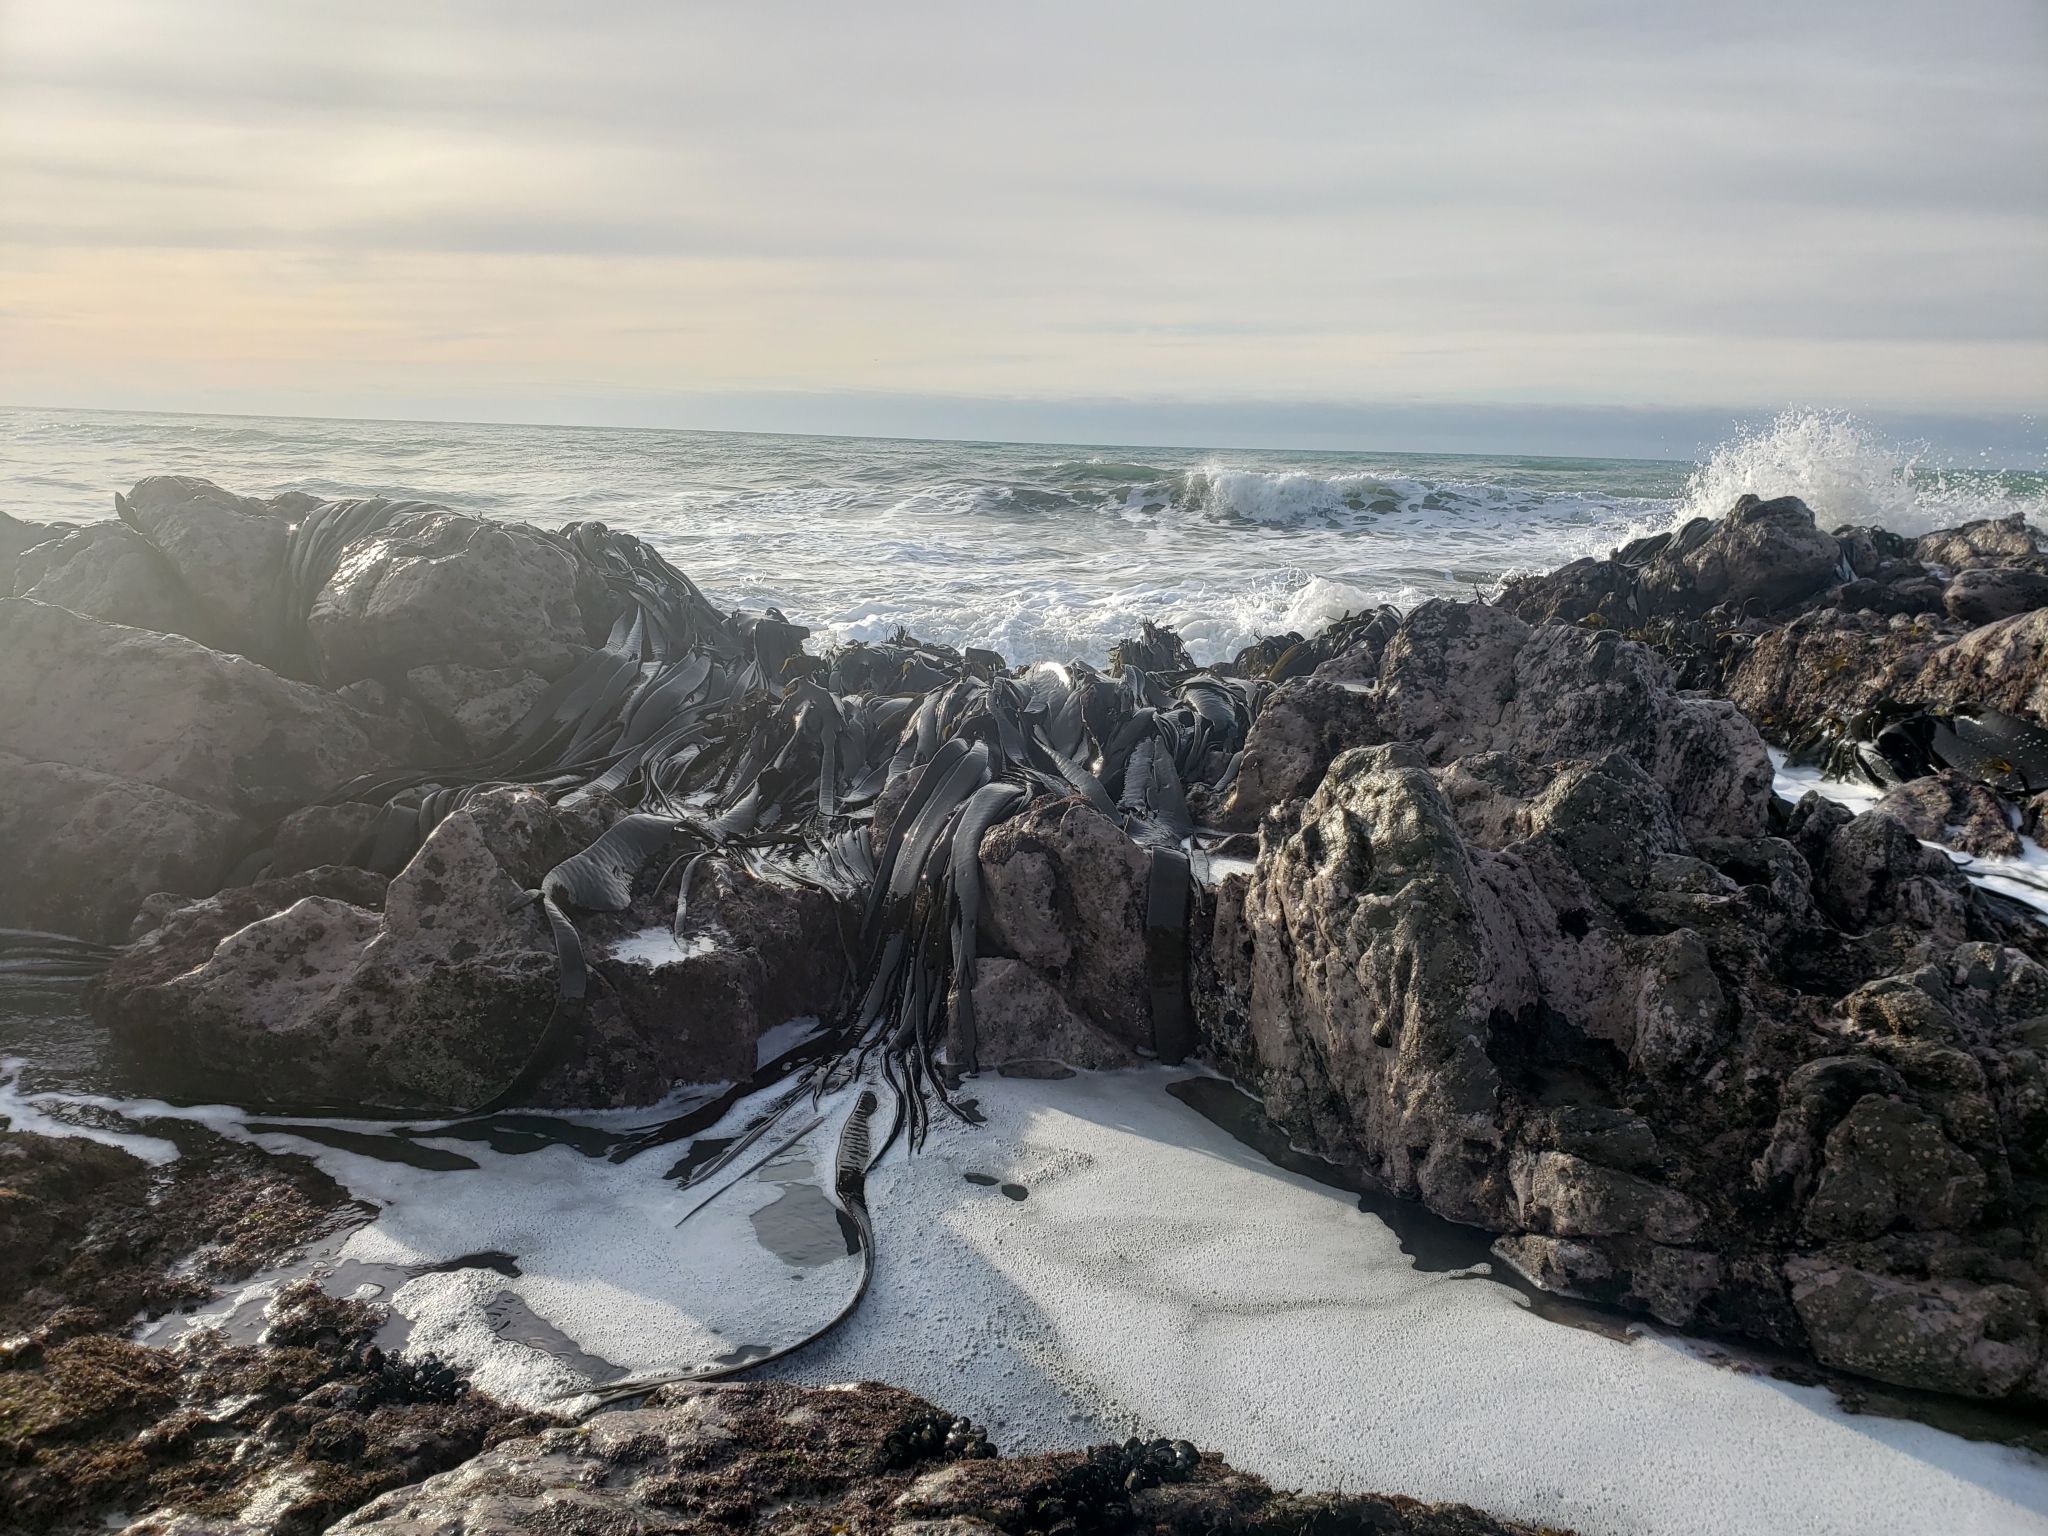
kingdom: Chromista
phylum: Ochrophyta
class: Phaeophyceae
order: Fucales
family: Durvillaeaceae
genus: Durvillaea
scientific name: Durvillaea antarctica
